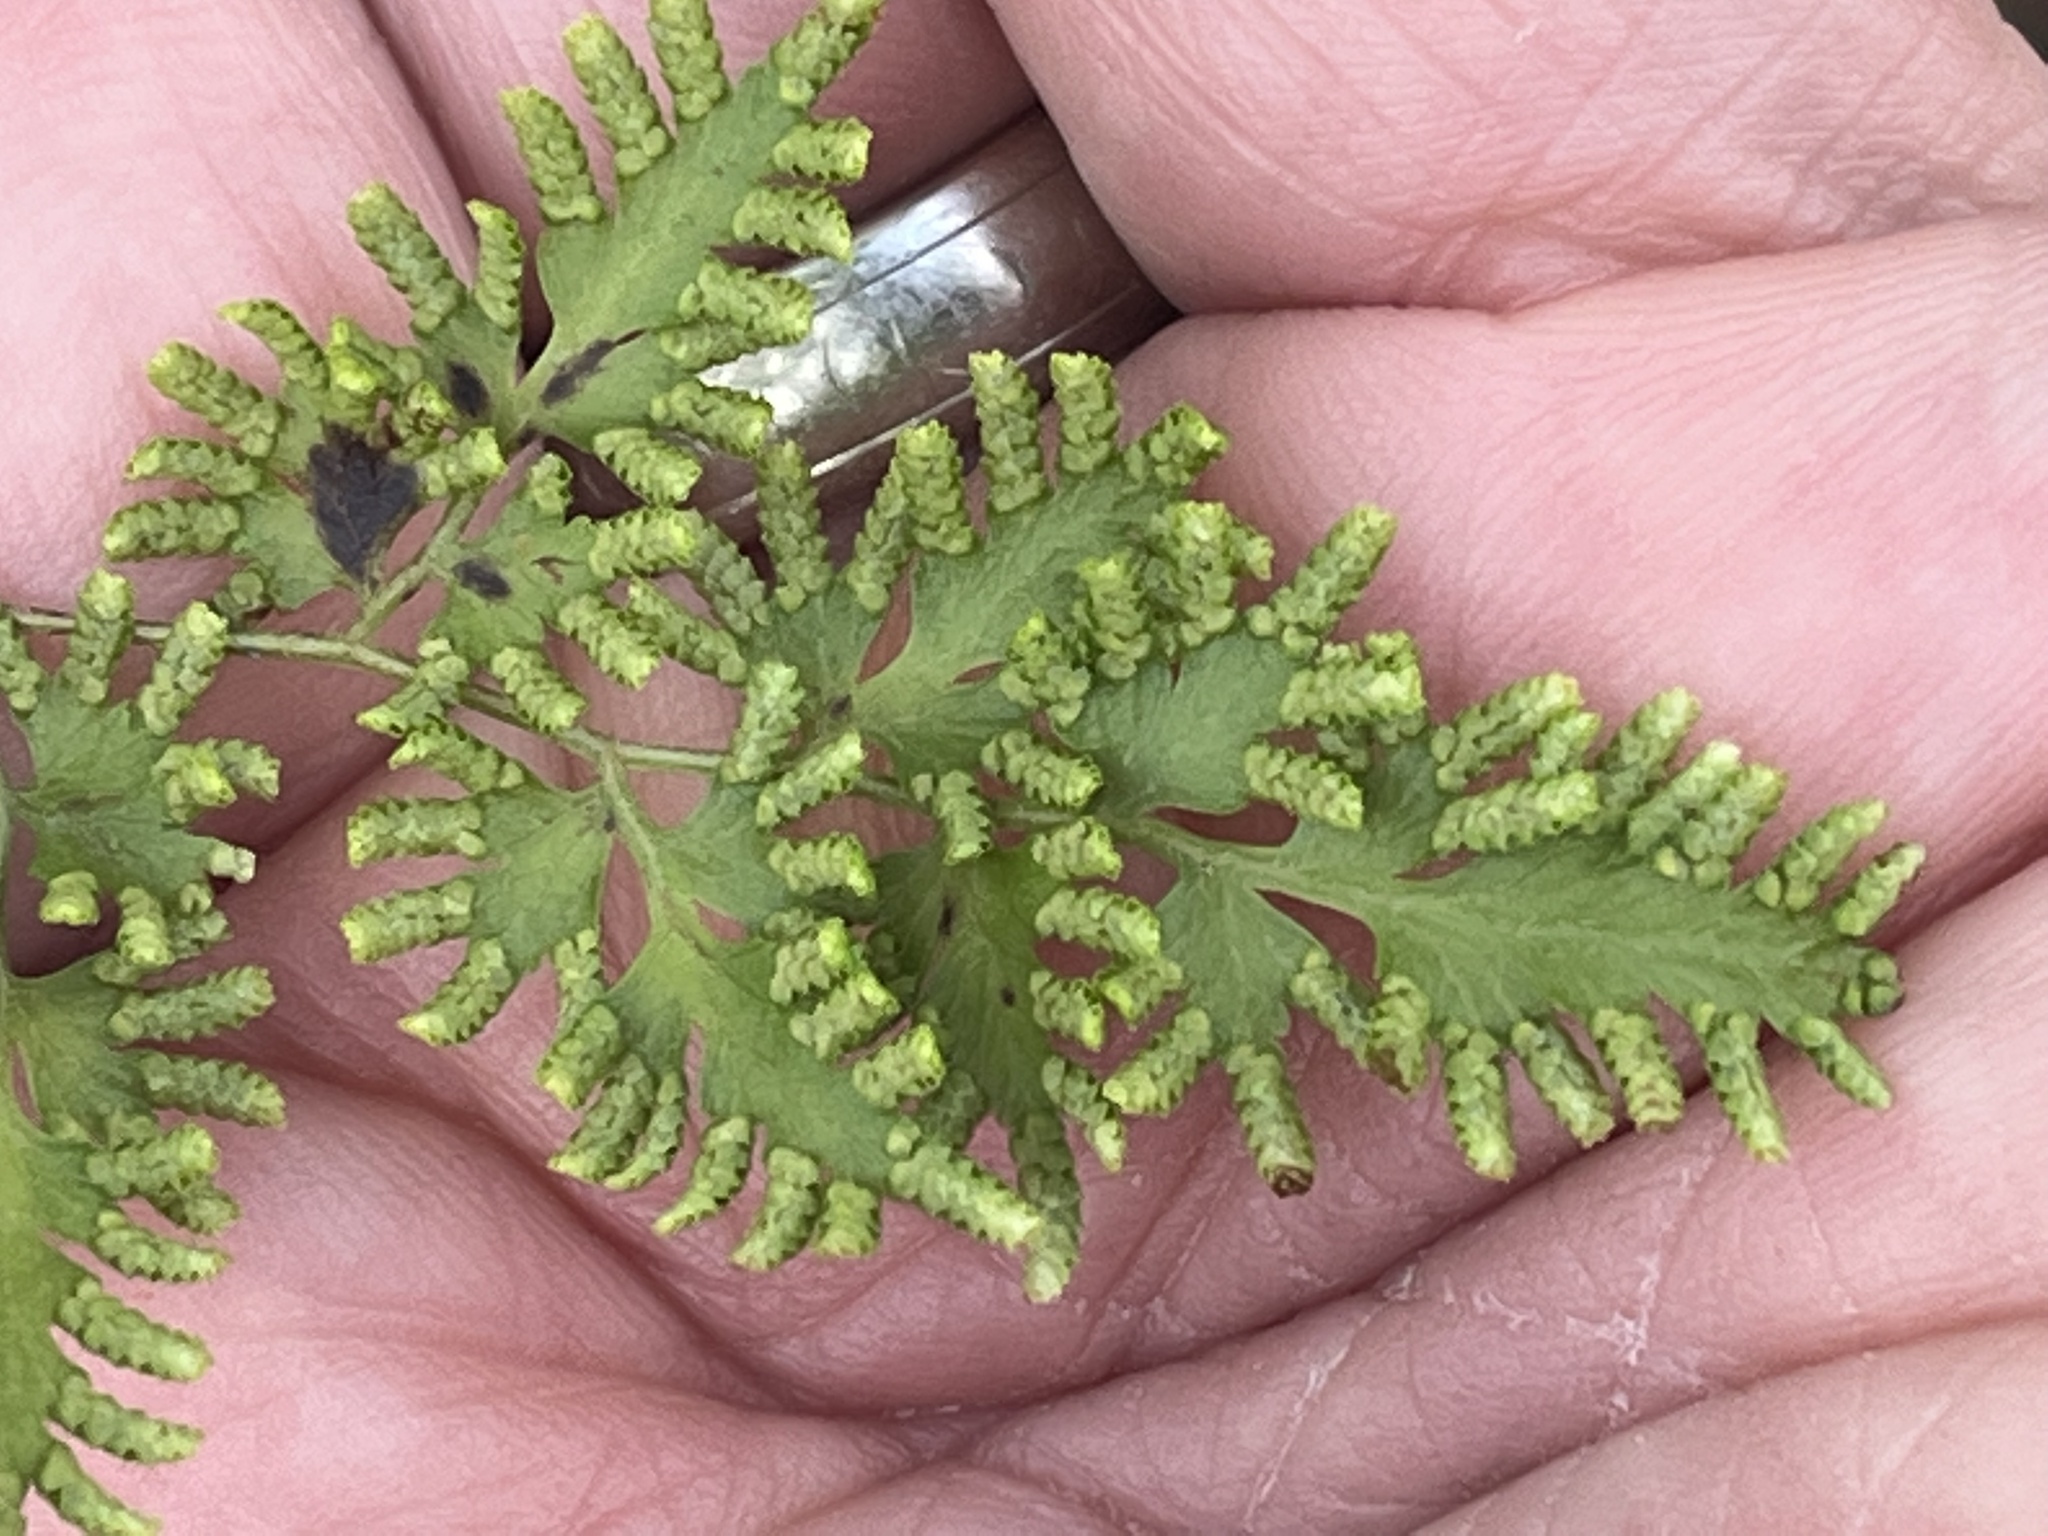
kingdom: Plantae
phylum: Tracheophyta
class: Polypodiopsida
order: Schizaeales
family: Lygodiaceae
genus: Lygodium
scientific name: Lygodium japonicum
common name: Japanese climbing fern
